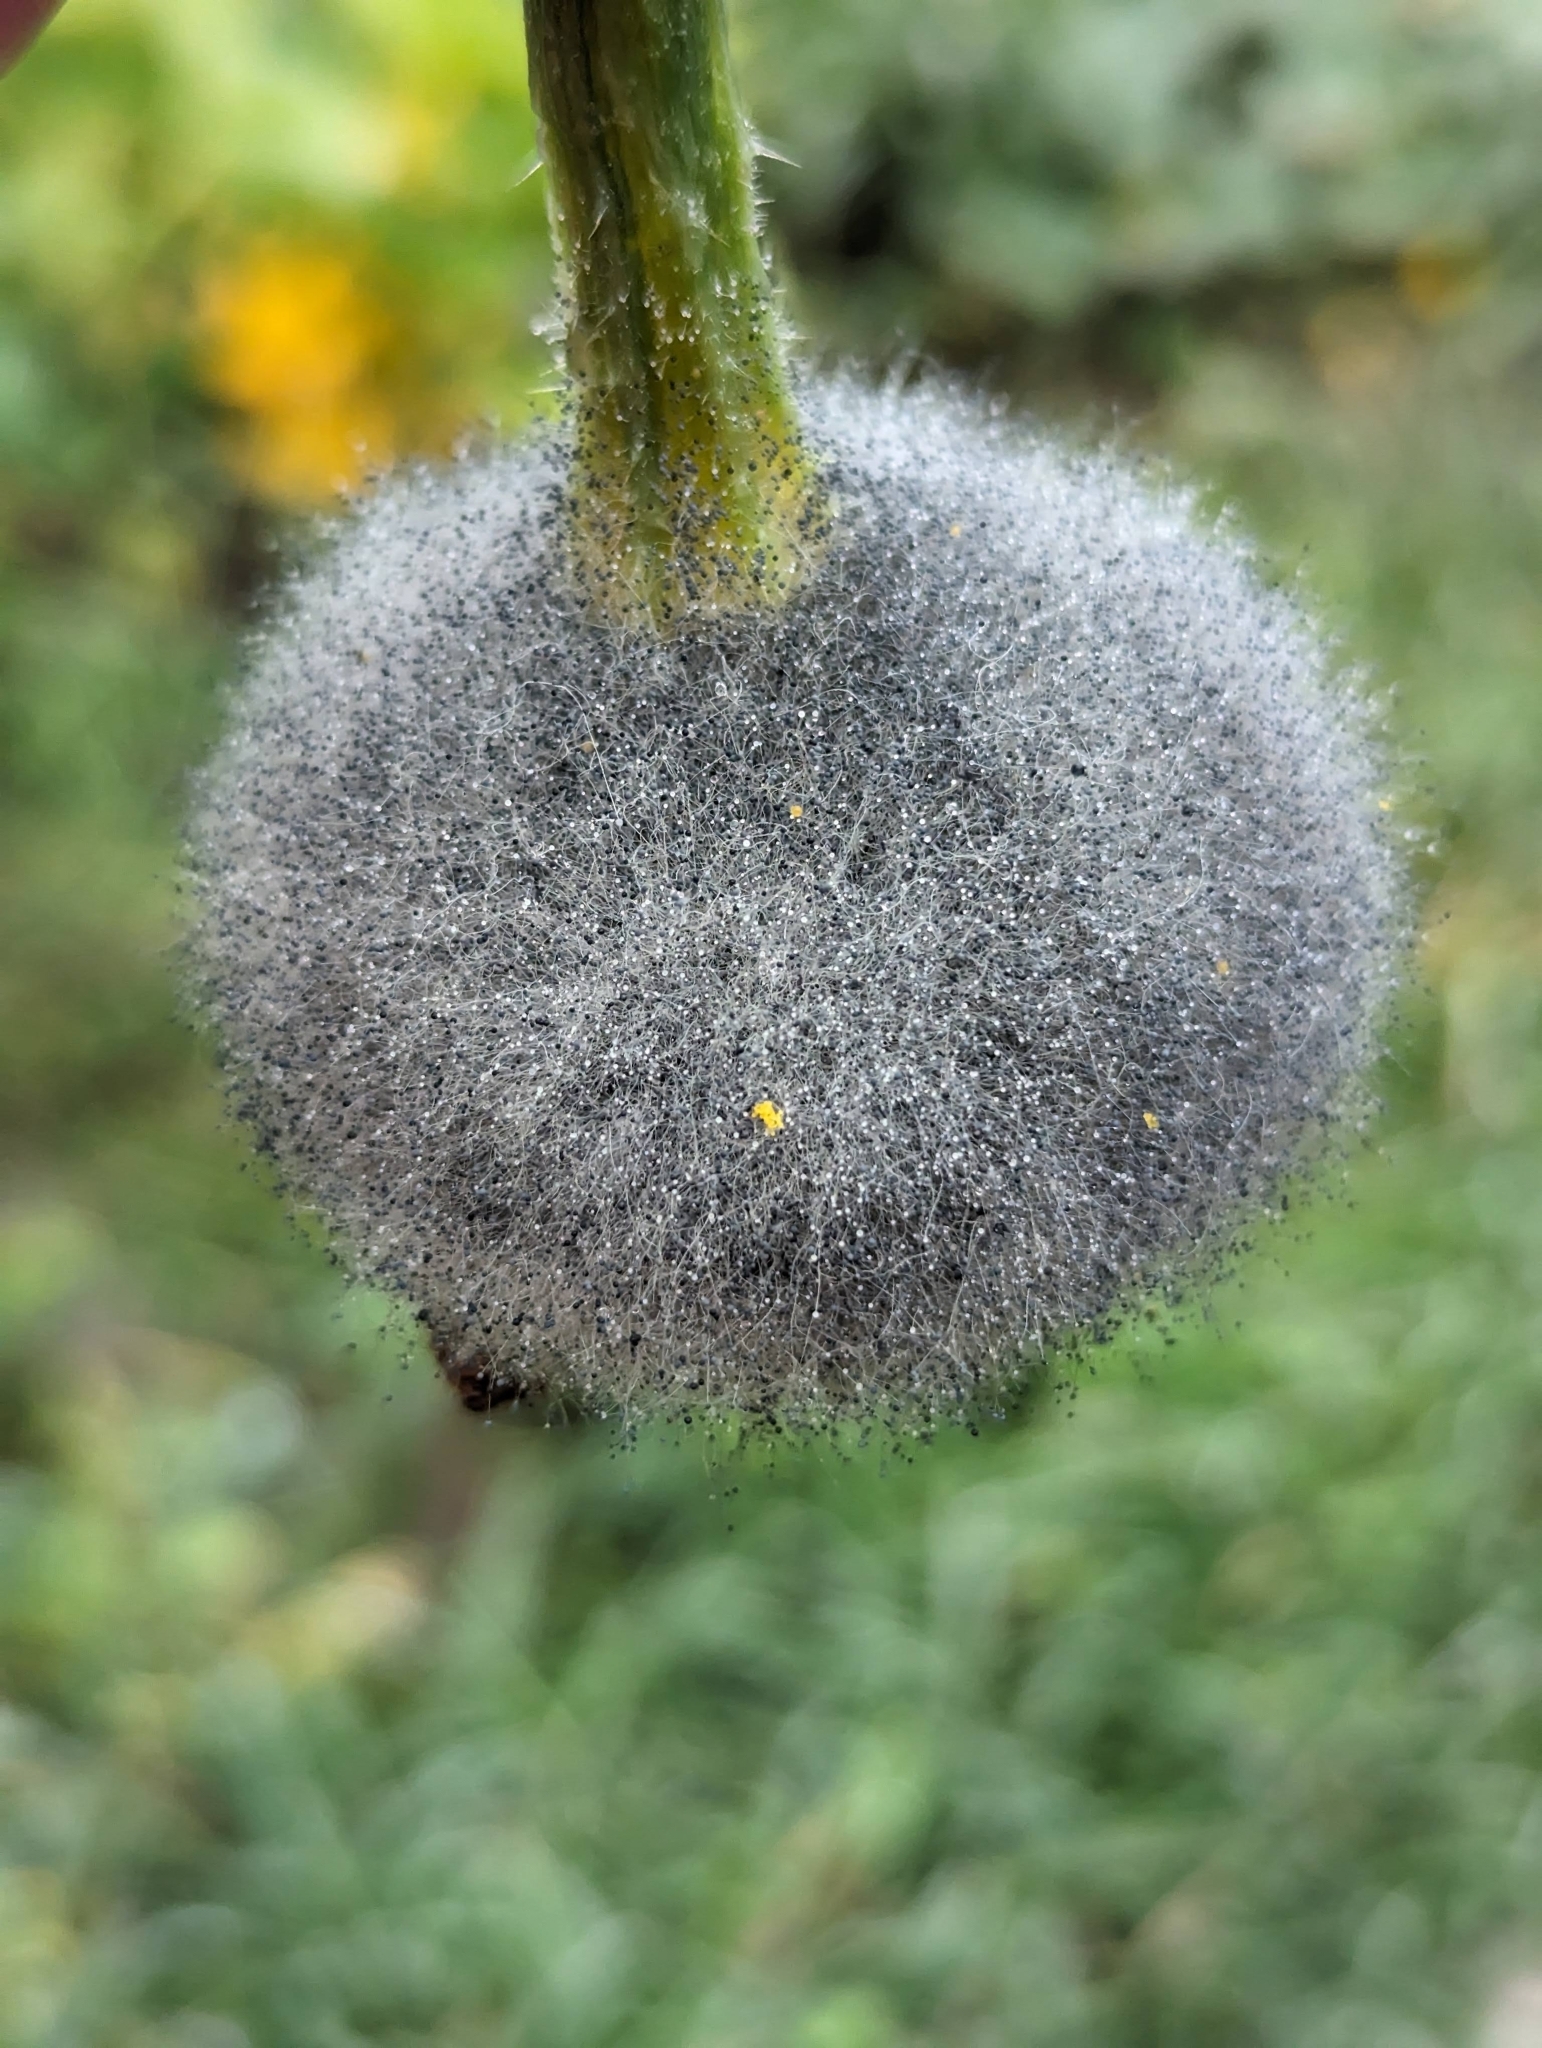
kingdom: Fungi
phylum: Ascomycota
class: Leotiomycetes
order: Helotiales
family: Sclerotiniaceae
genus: Botrytis
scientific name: Botrytis cinerea
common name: Grey mould
